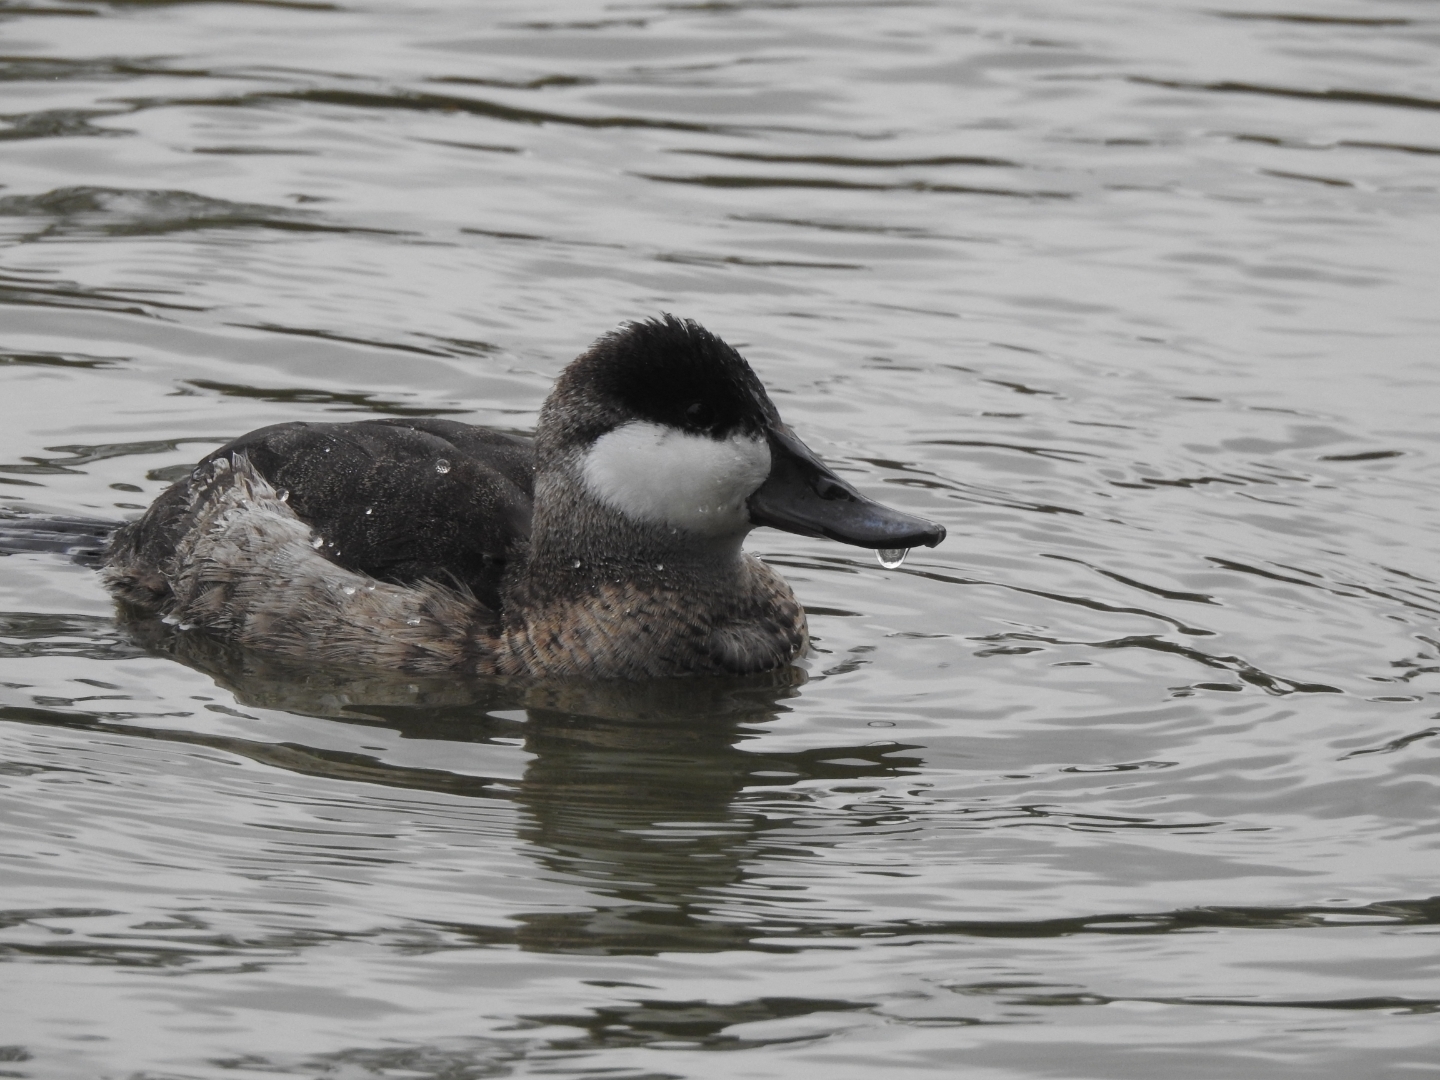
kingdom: Animalia
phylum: Chordata
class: Aves
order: Anseriformes
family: Anatidae
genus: Oxyura
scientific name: Oxyura jamaicensis
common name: Ruddy duck
